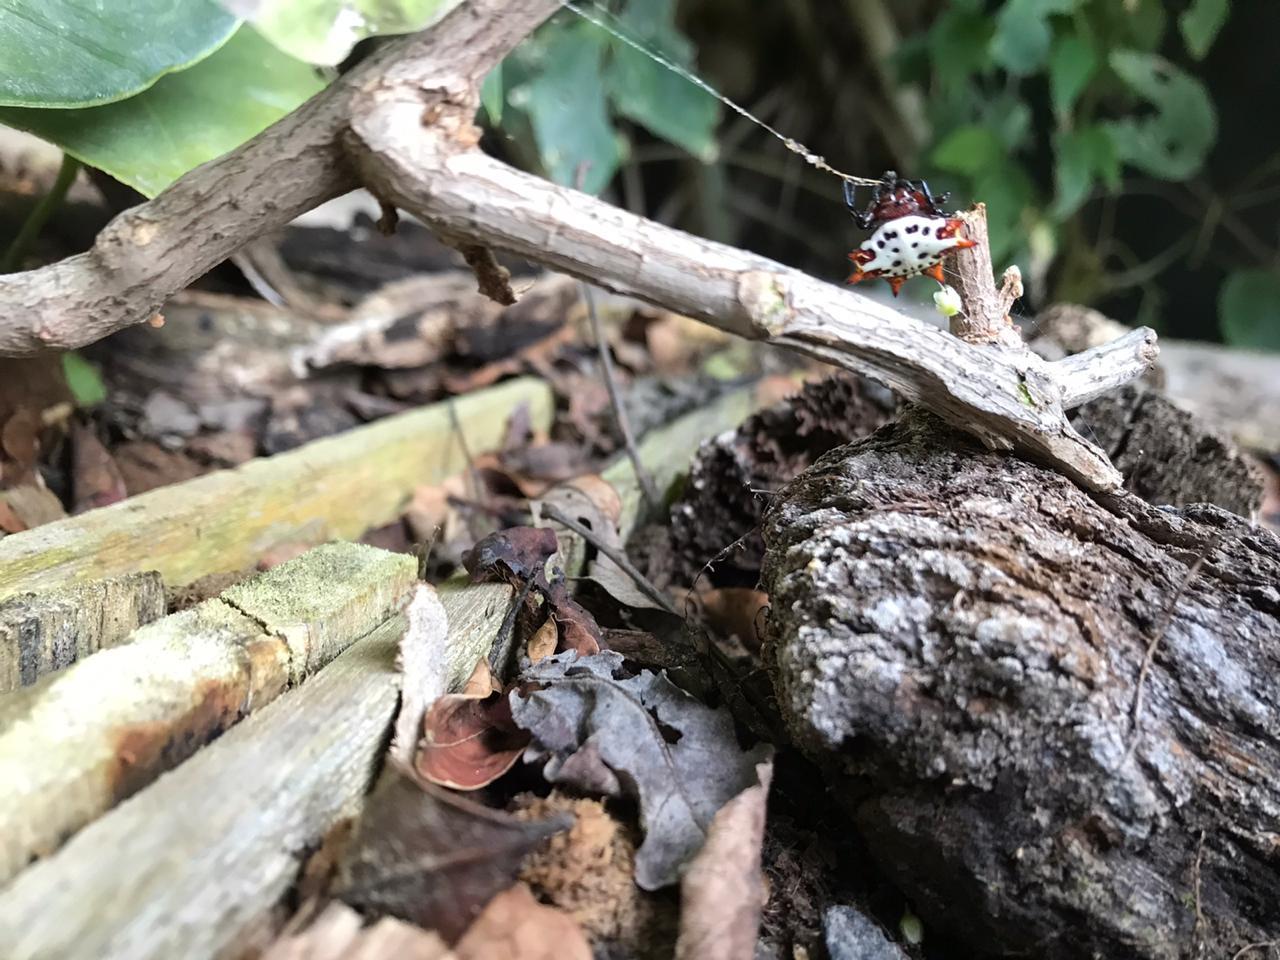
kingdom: Animalia
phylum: Arthropoda
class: Arachnida
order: Araneae
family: Araneidae
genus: Gasteracantha
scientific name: Gasteracantha cancriformis
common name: Orb weavers
